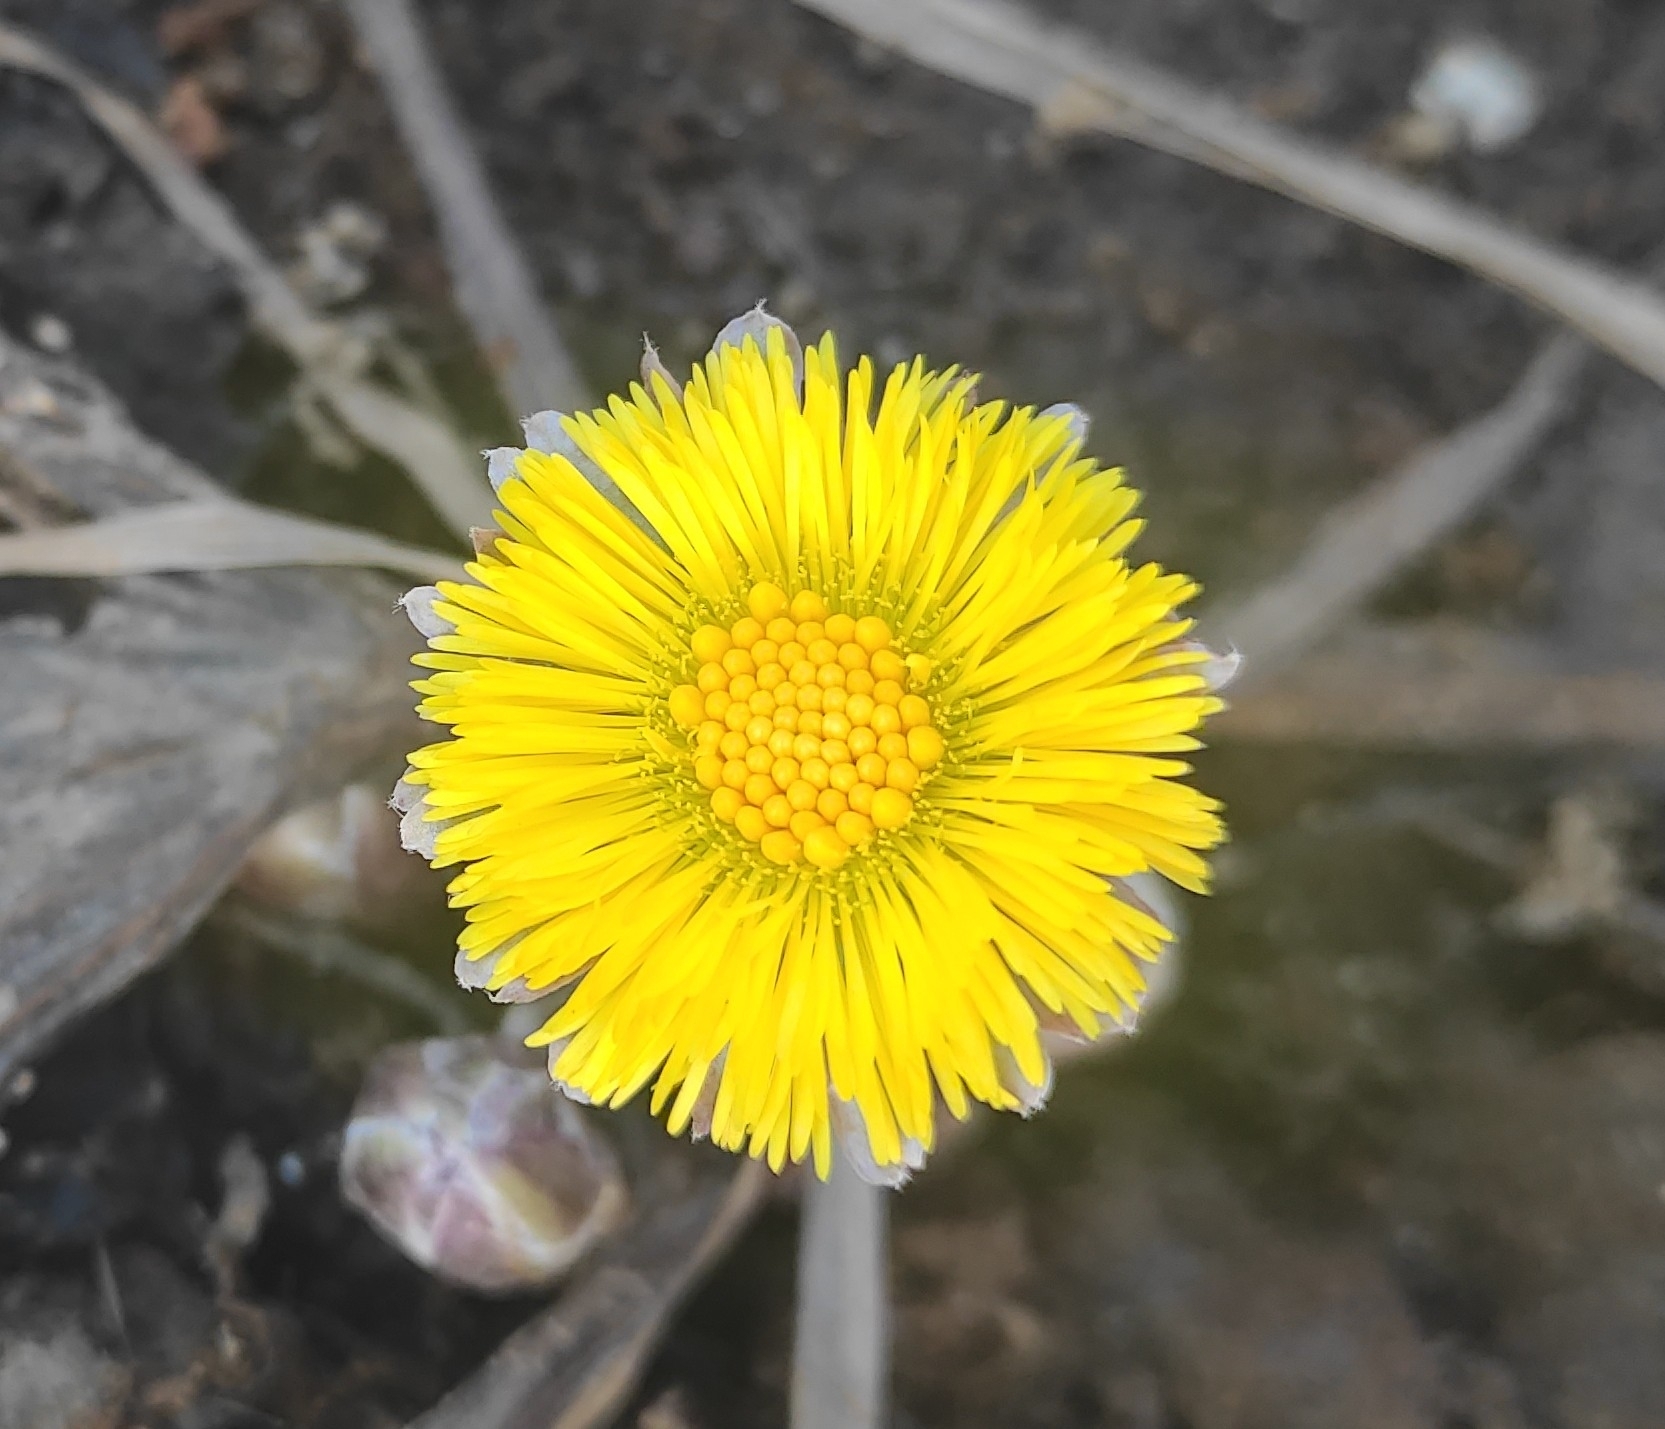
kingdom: Plantae
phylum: Tracheophyta
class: Magnoliopsida
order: Asterales
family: Asteraceae
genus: Tussilago
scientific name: Tussilago farfara
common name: Coltsfoot
